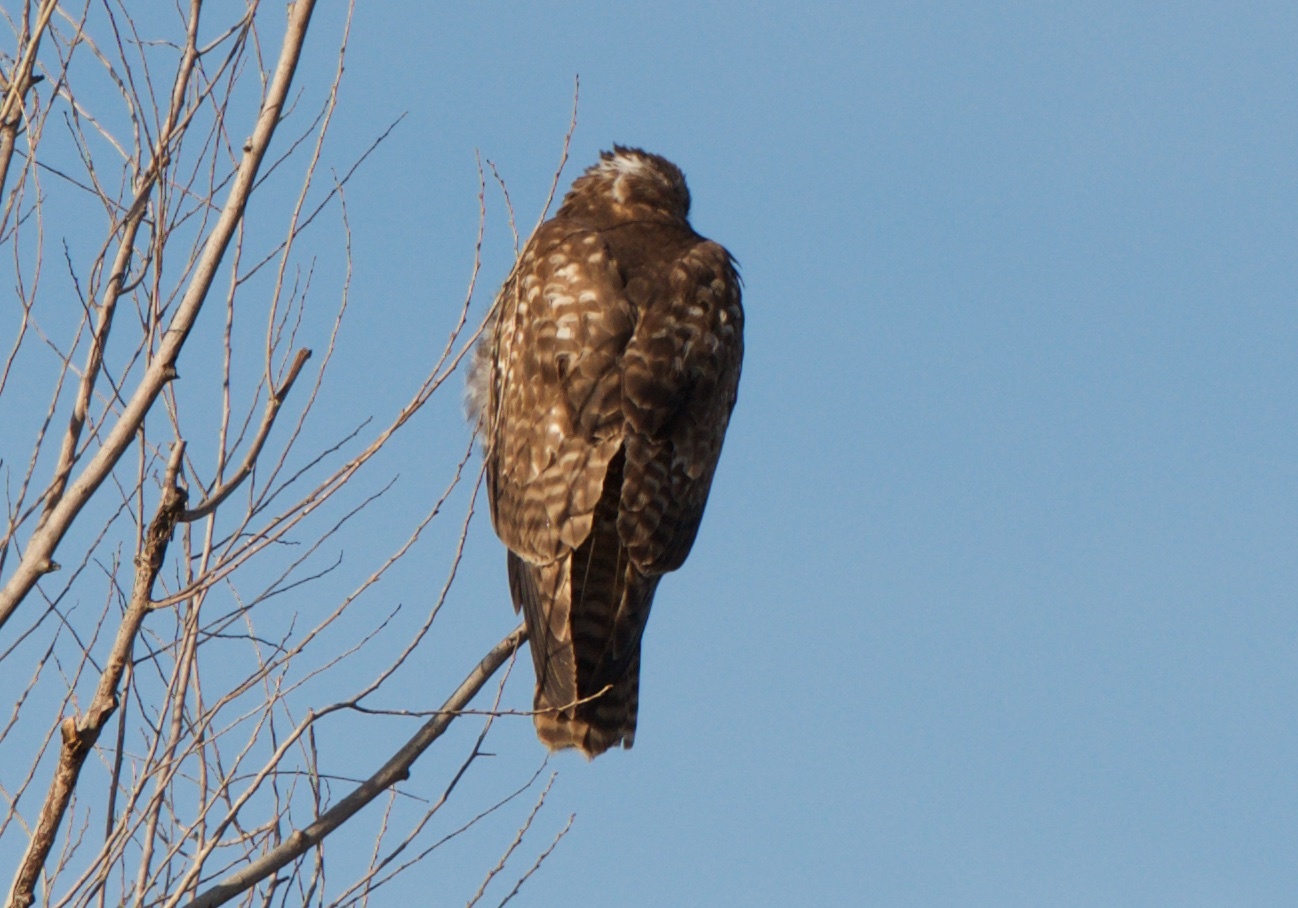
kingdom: Animalia
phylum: Chordata
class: Aves
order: Accipitriformes
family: Accipitridae
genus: Buteo
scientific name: Buteo jamaicensis
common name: Red-tailed hawk
